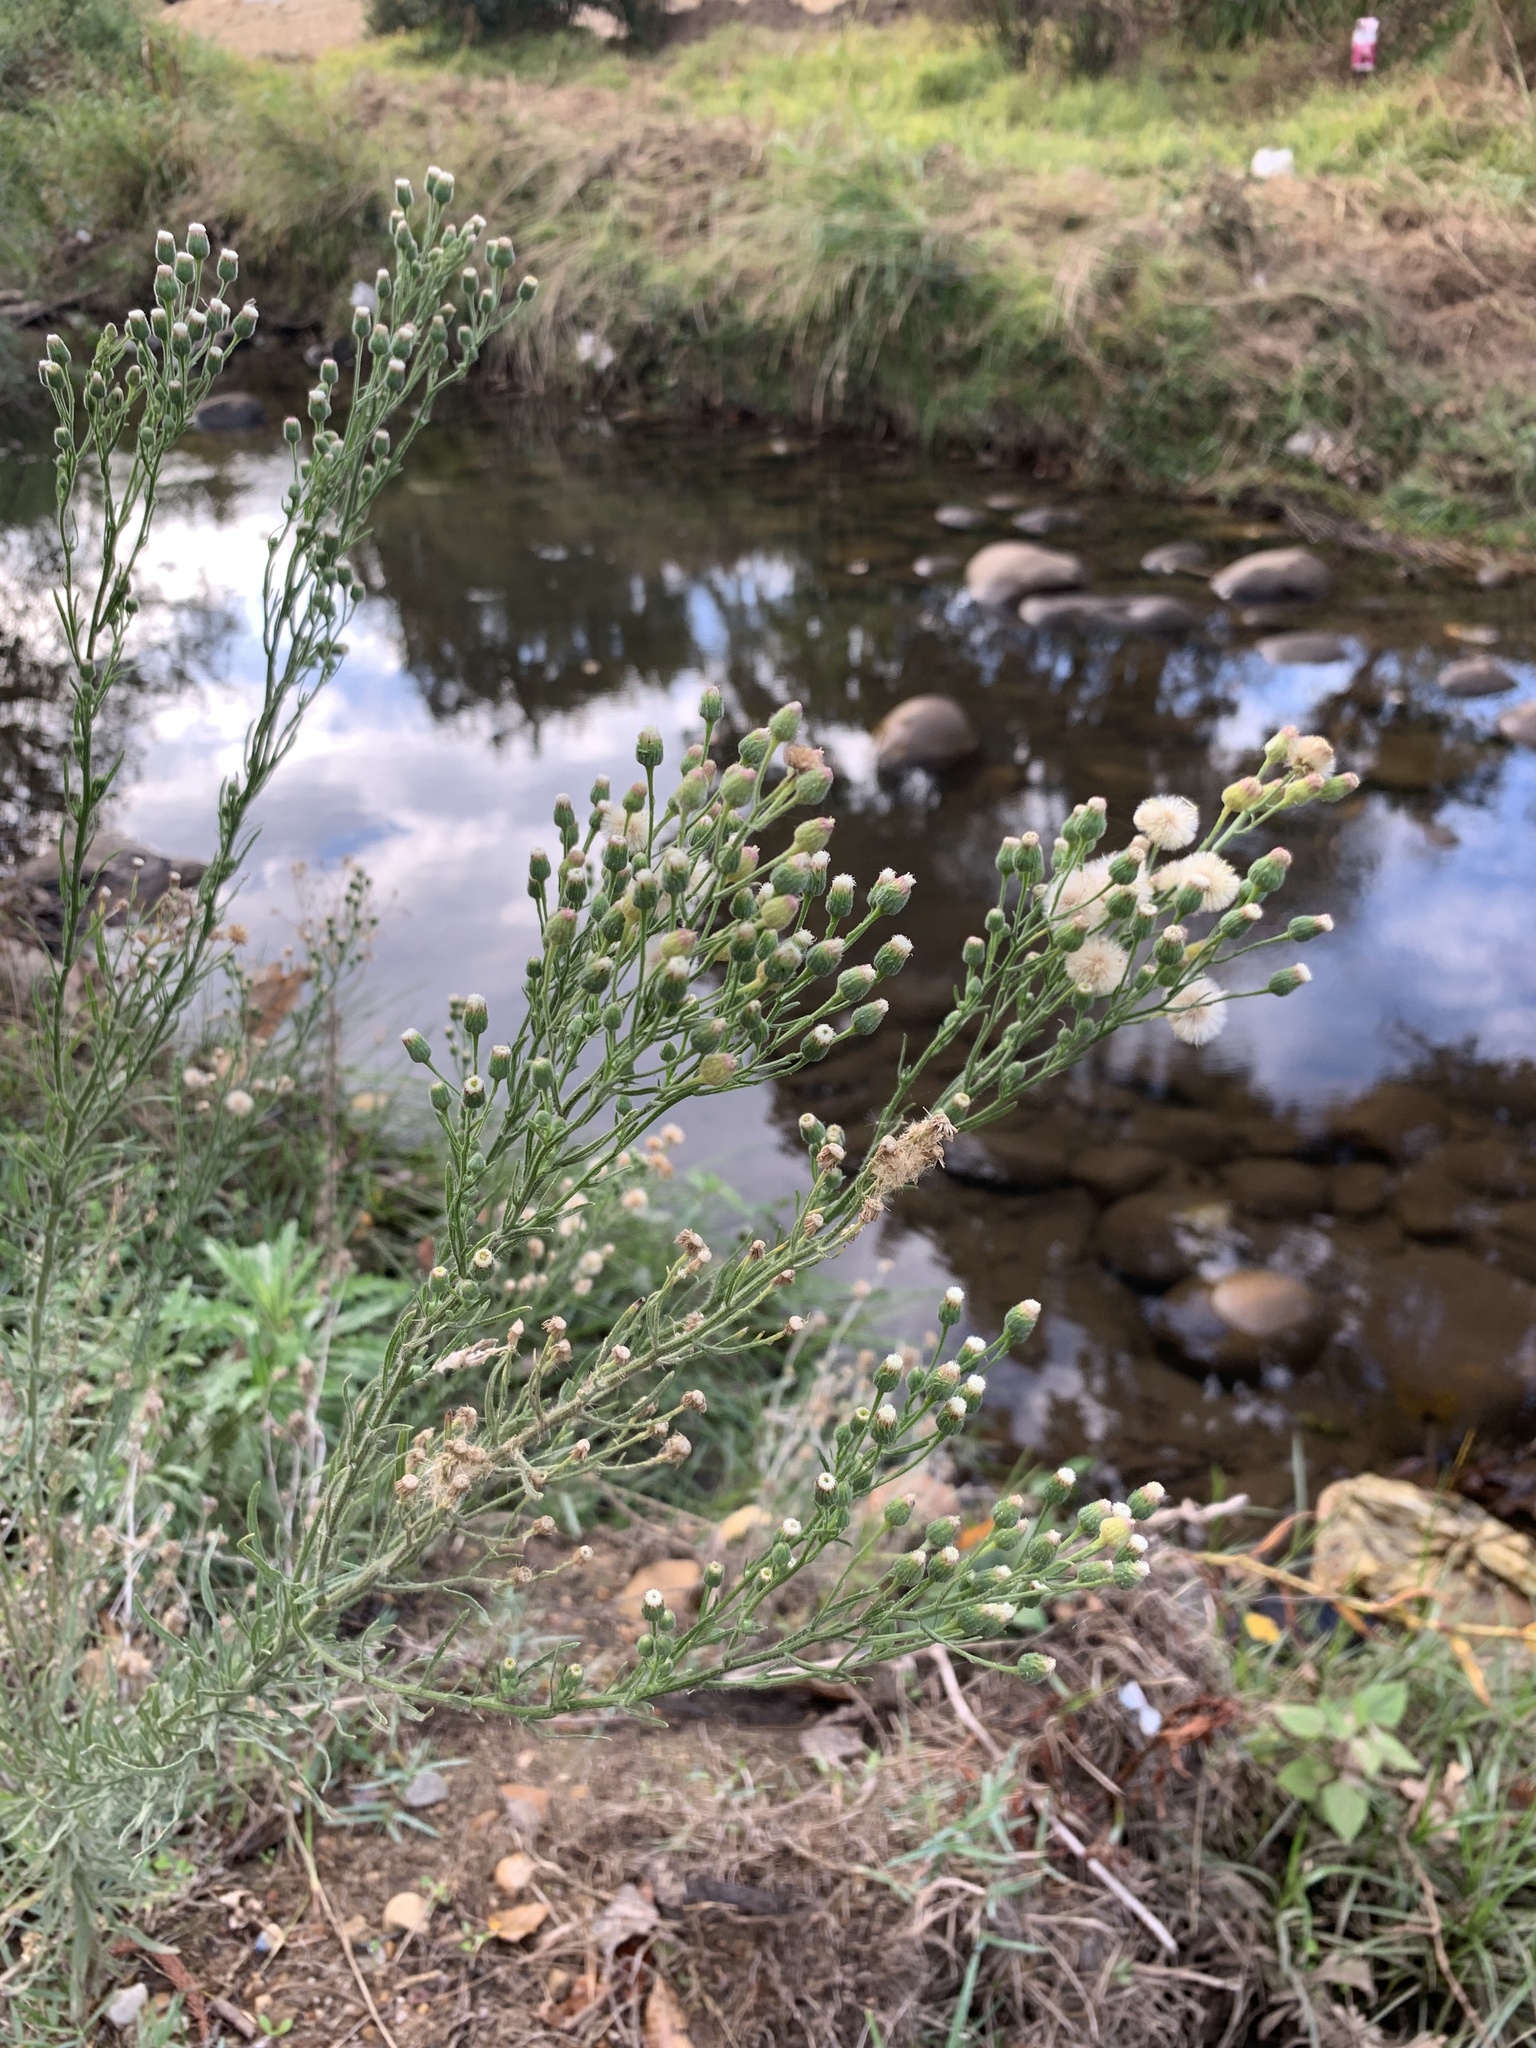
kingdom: Plantae
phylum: Tracheophyta
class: Magnoliopsida
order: Asterales
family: Asteraceae
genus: Erigeron
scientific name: Erigeron bonariensis
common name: Argentine fleabane
